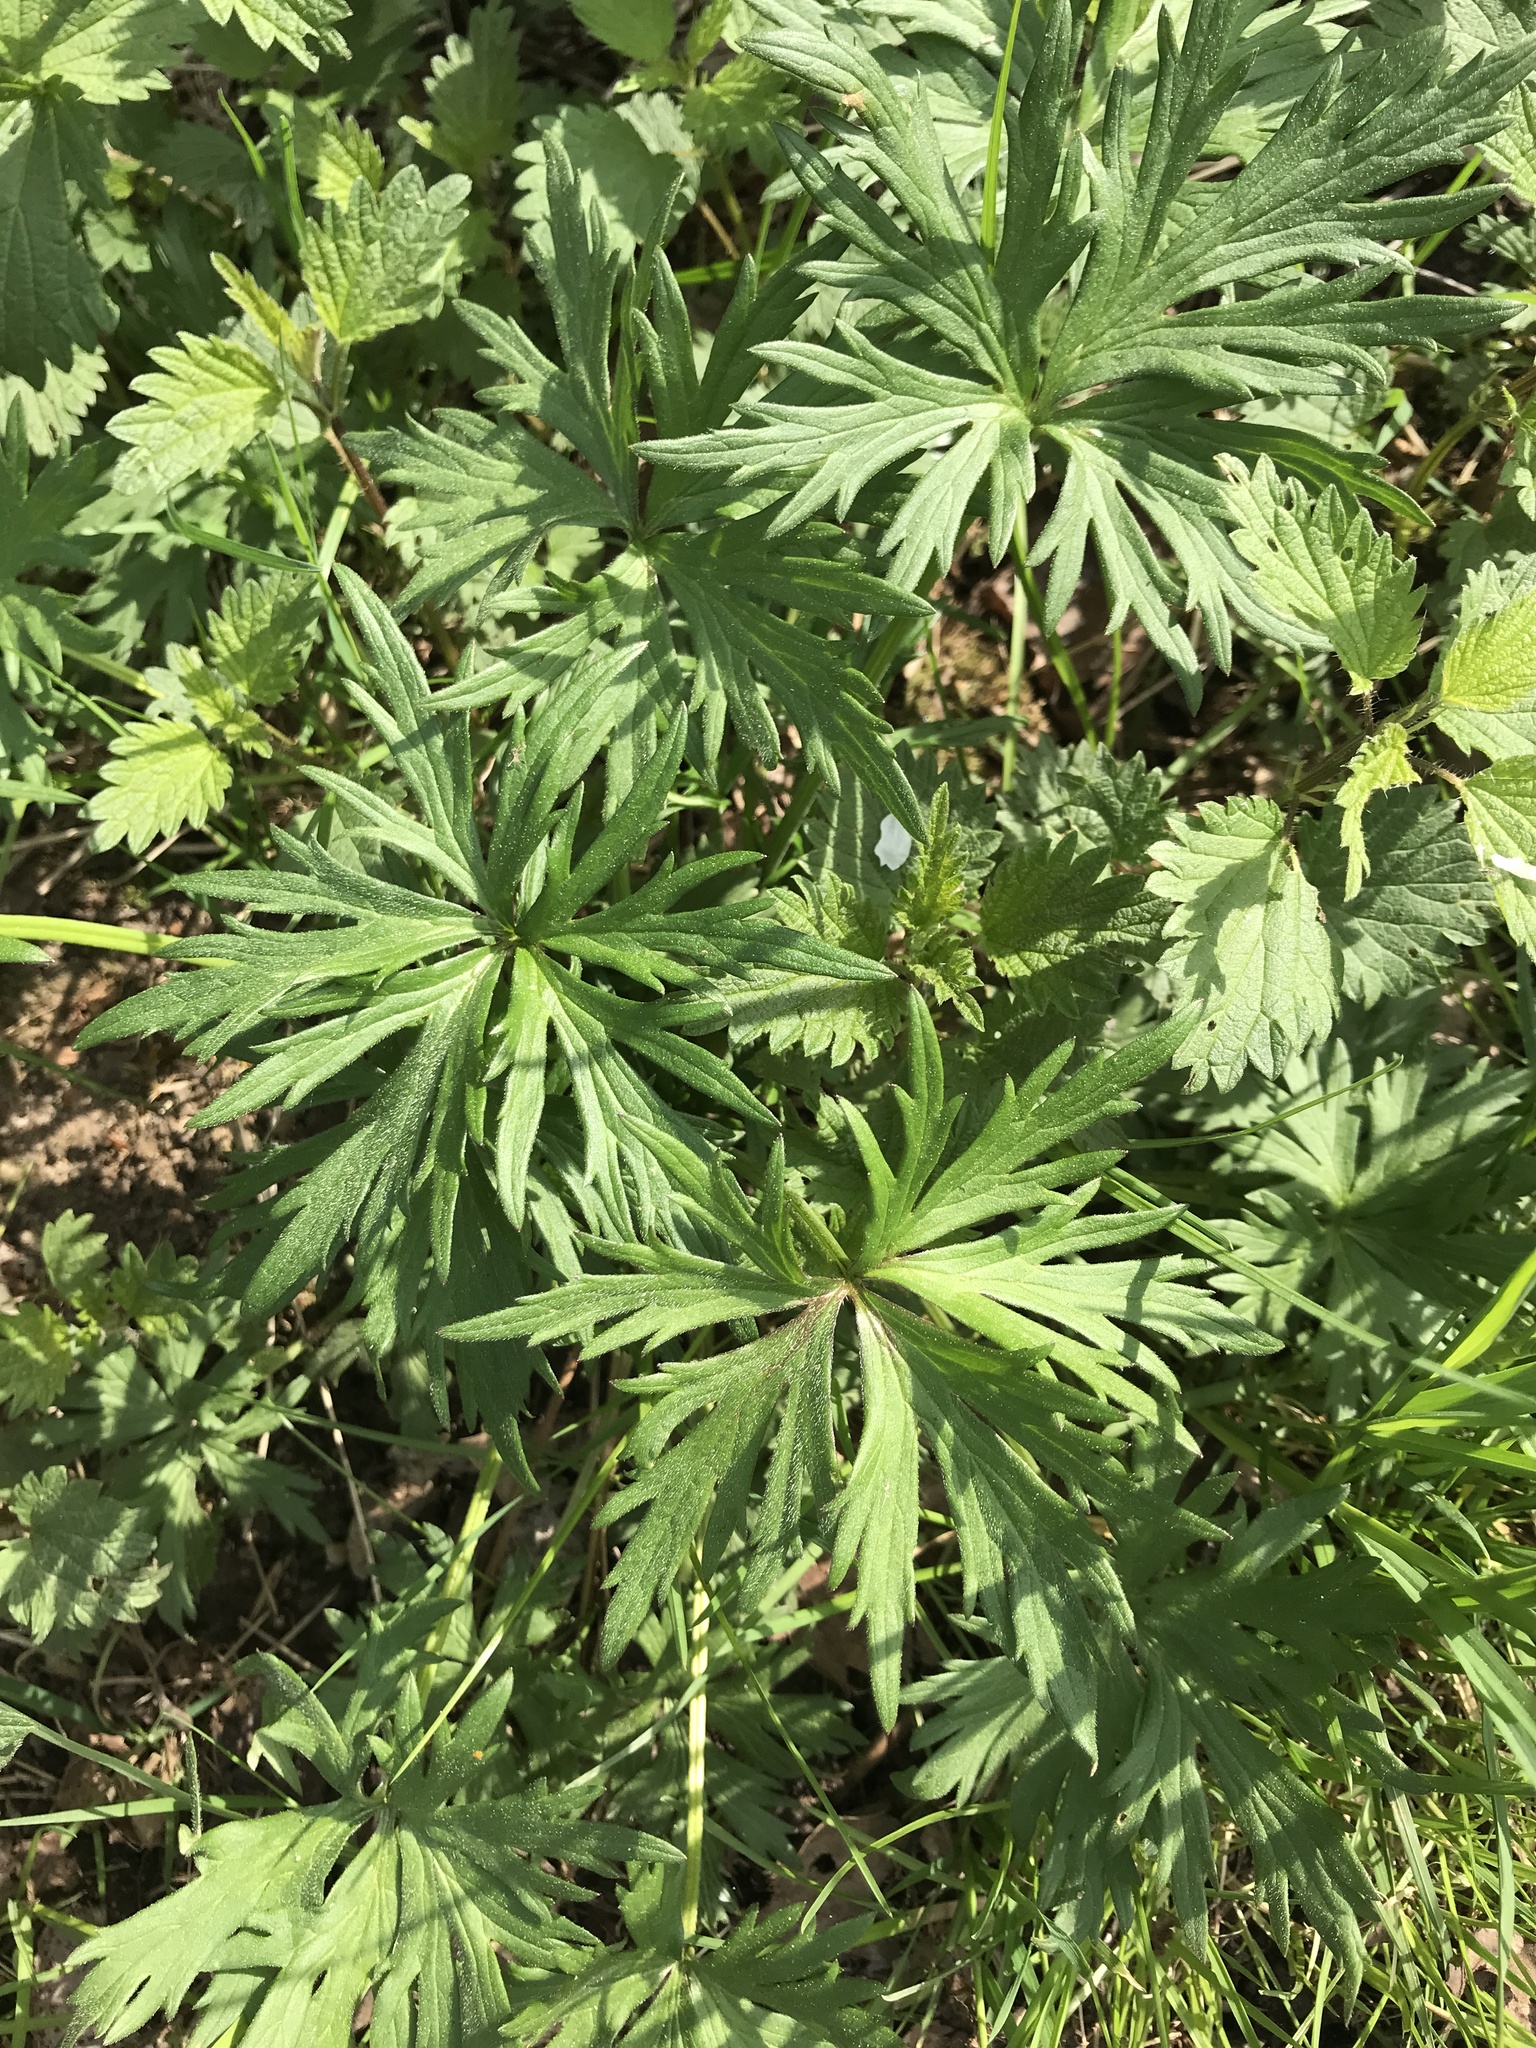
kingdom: Plantae
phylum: Tracheophyta
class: Magnoliopsida
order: Ranunculales
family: Ranunculaceae
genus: Ranunculus
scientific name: Ranunculus acris
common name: Meadow buttercup
